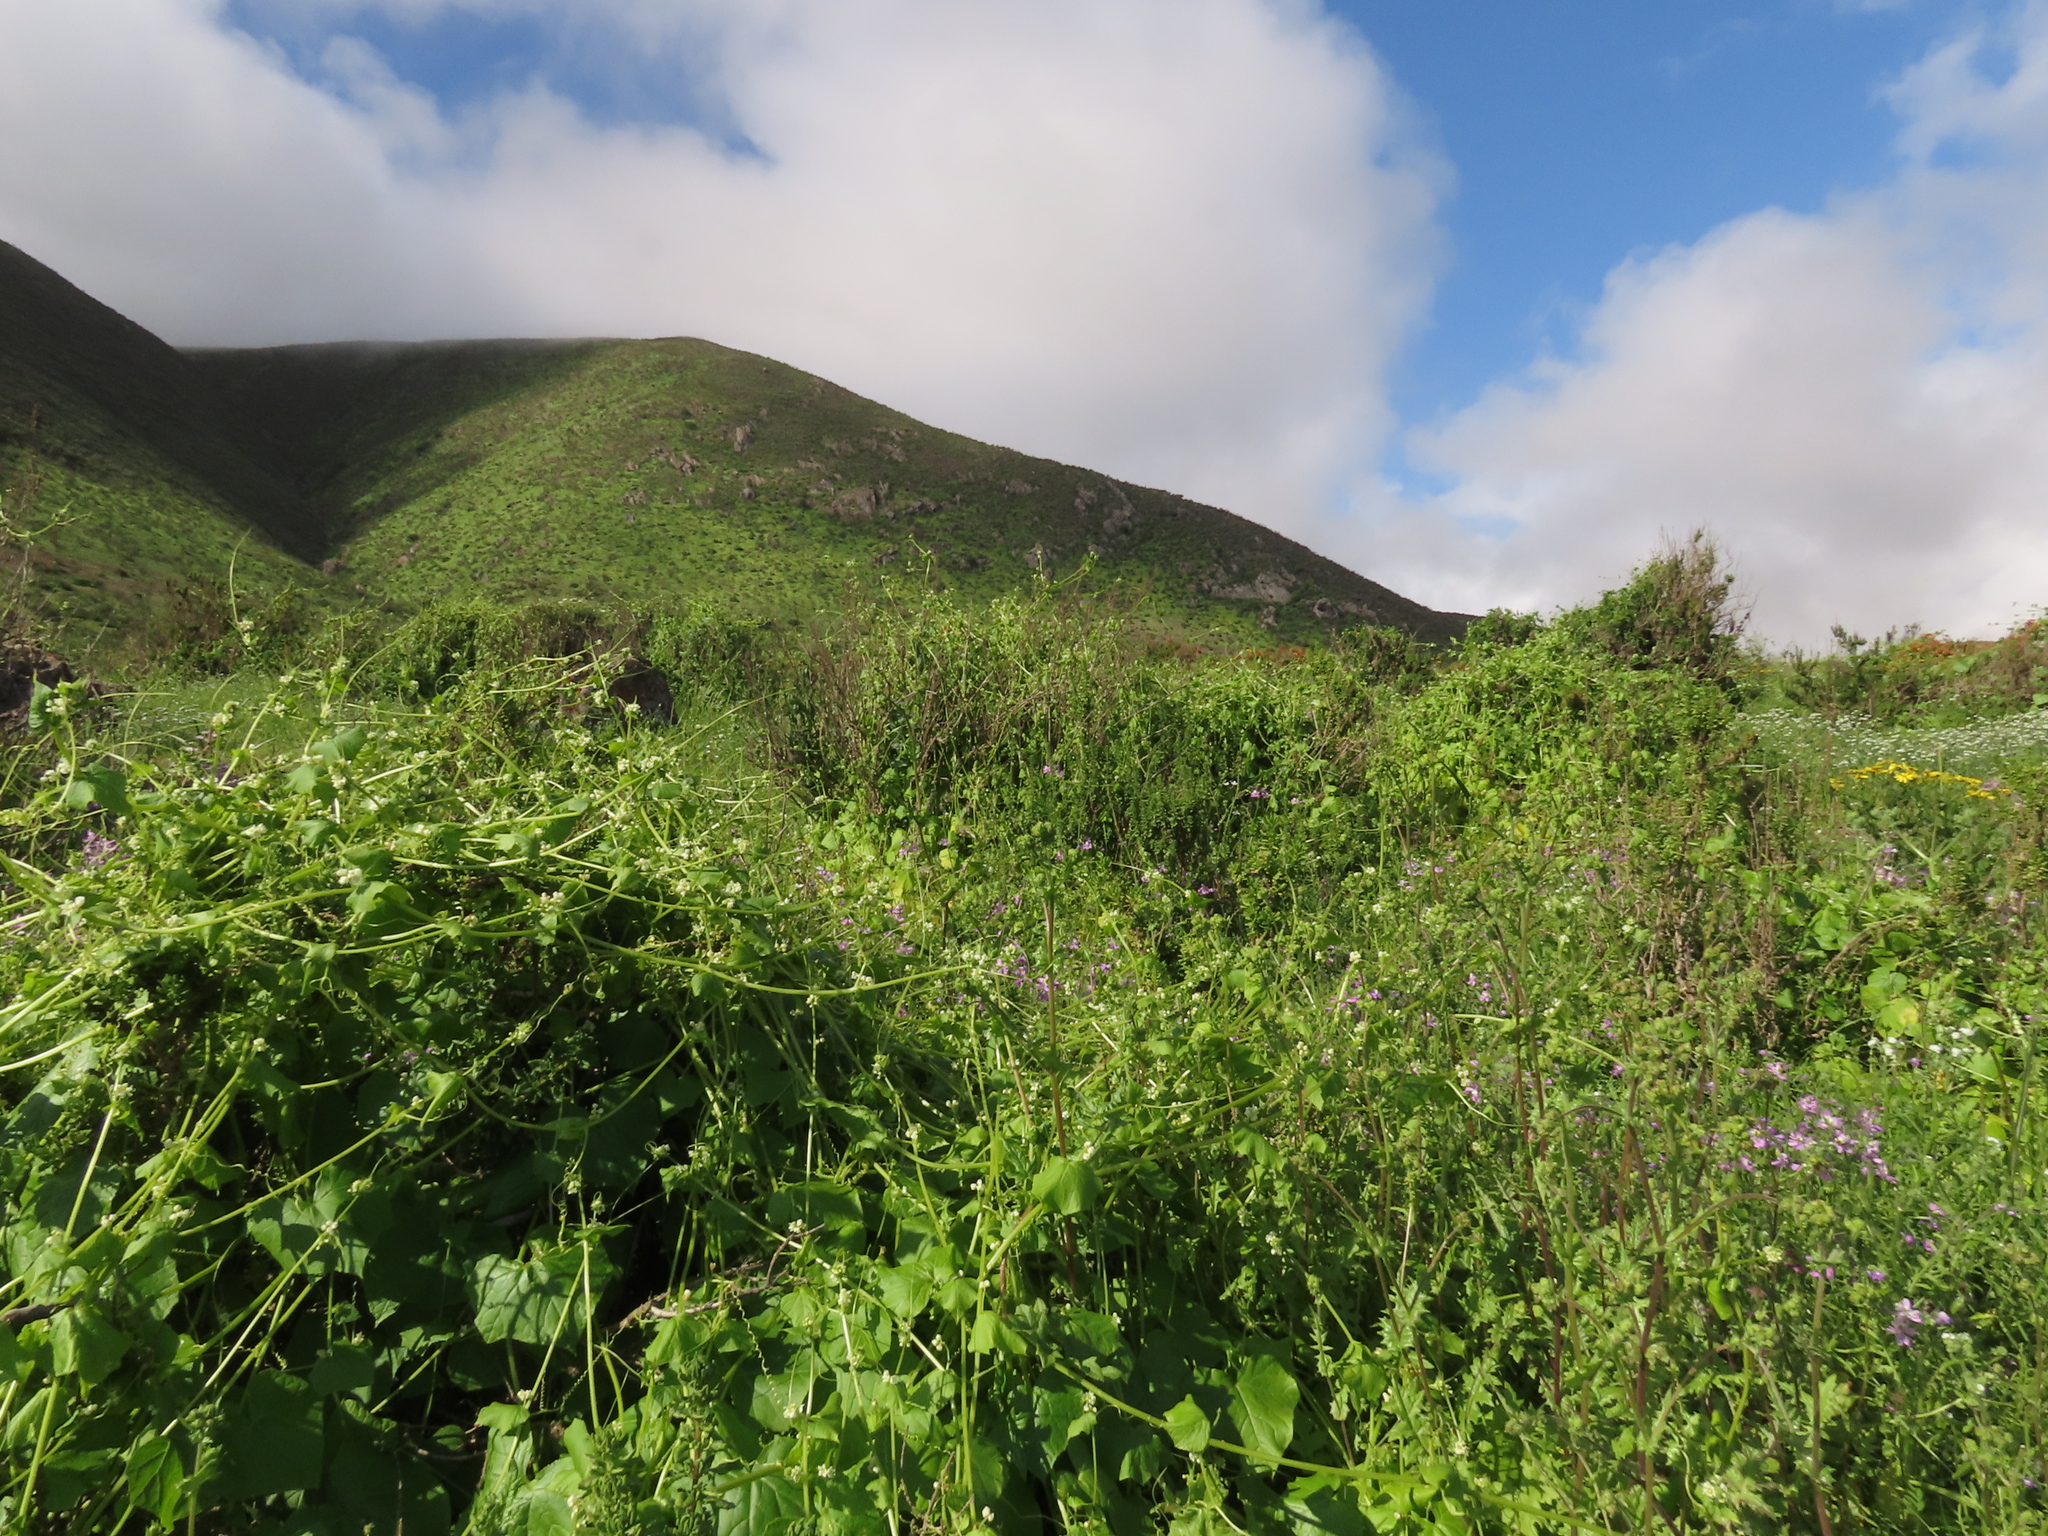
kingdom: Plantae
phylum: Tracheophyta
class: Magnoliopsida
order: Cucurbitales
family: Cucurbitaceae
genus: Sicyos
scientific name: Sicyos baderoa
